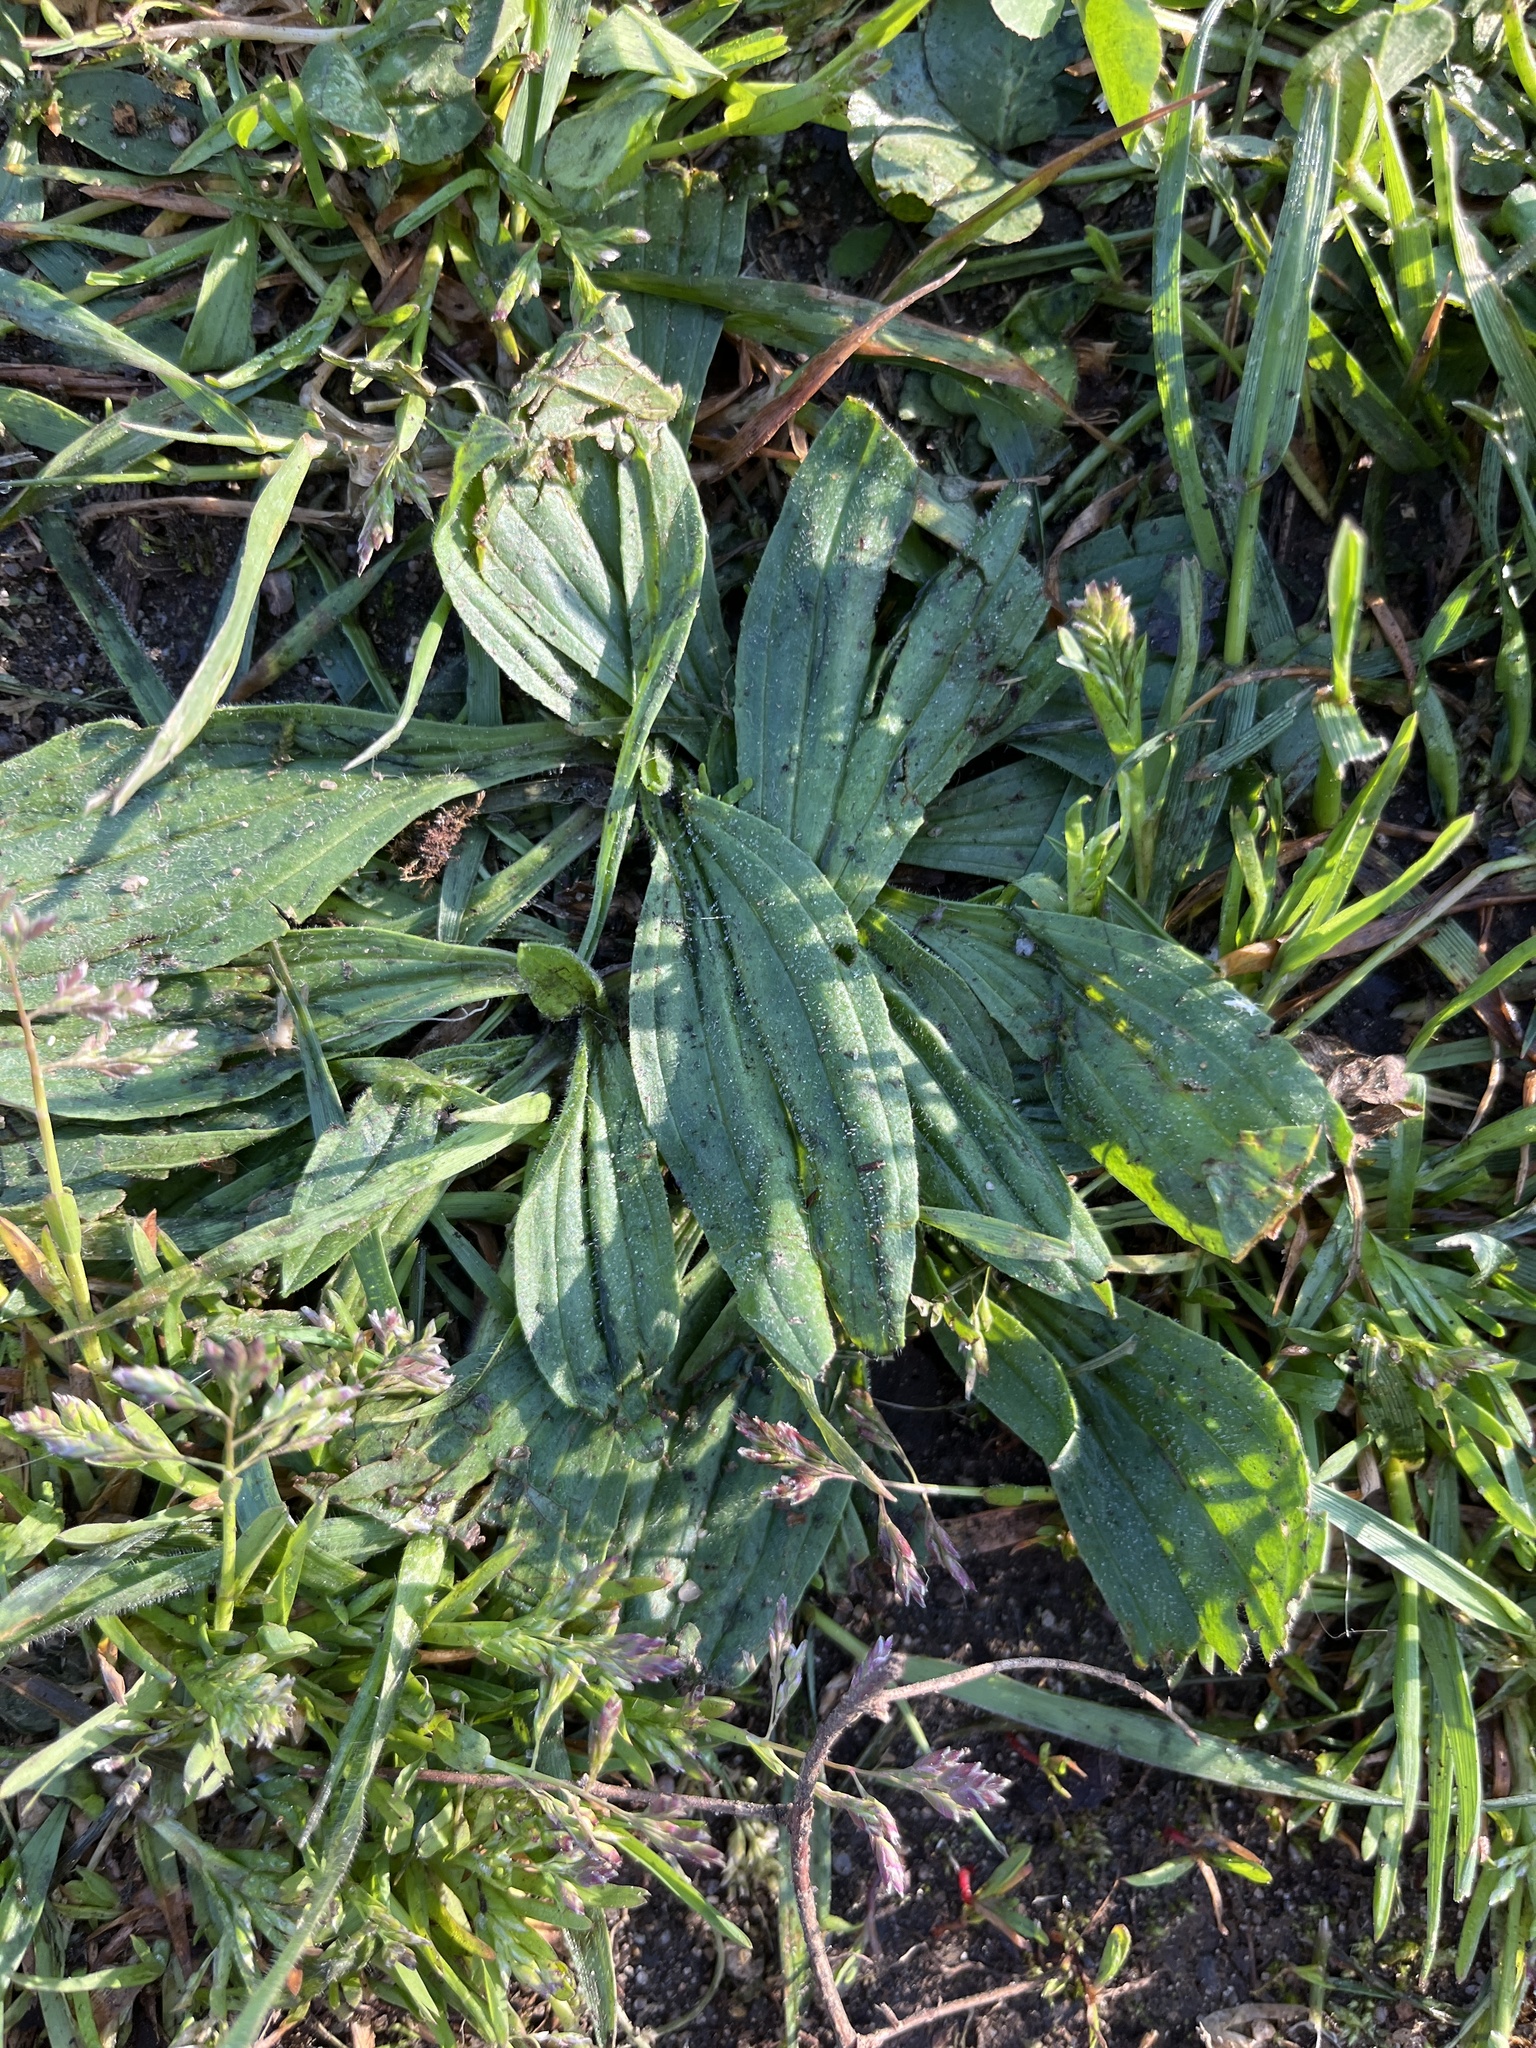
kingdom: Plantae
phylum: Tracheophyta
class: Magnoliopsida
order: Lamiales
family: Plantaginaceae
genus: Plantago
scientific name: Plantago lanceolata
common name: Ribwort plantain
